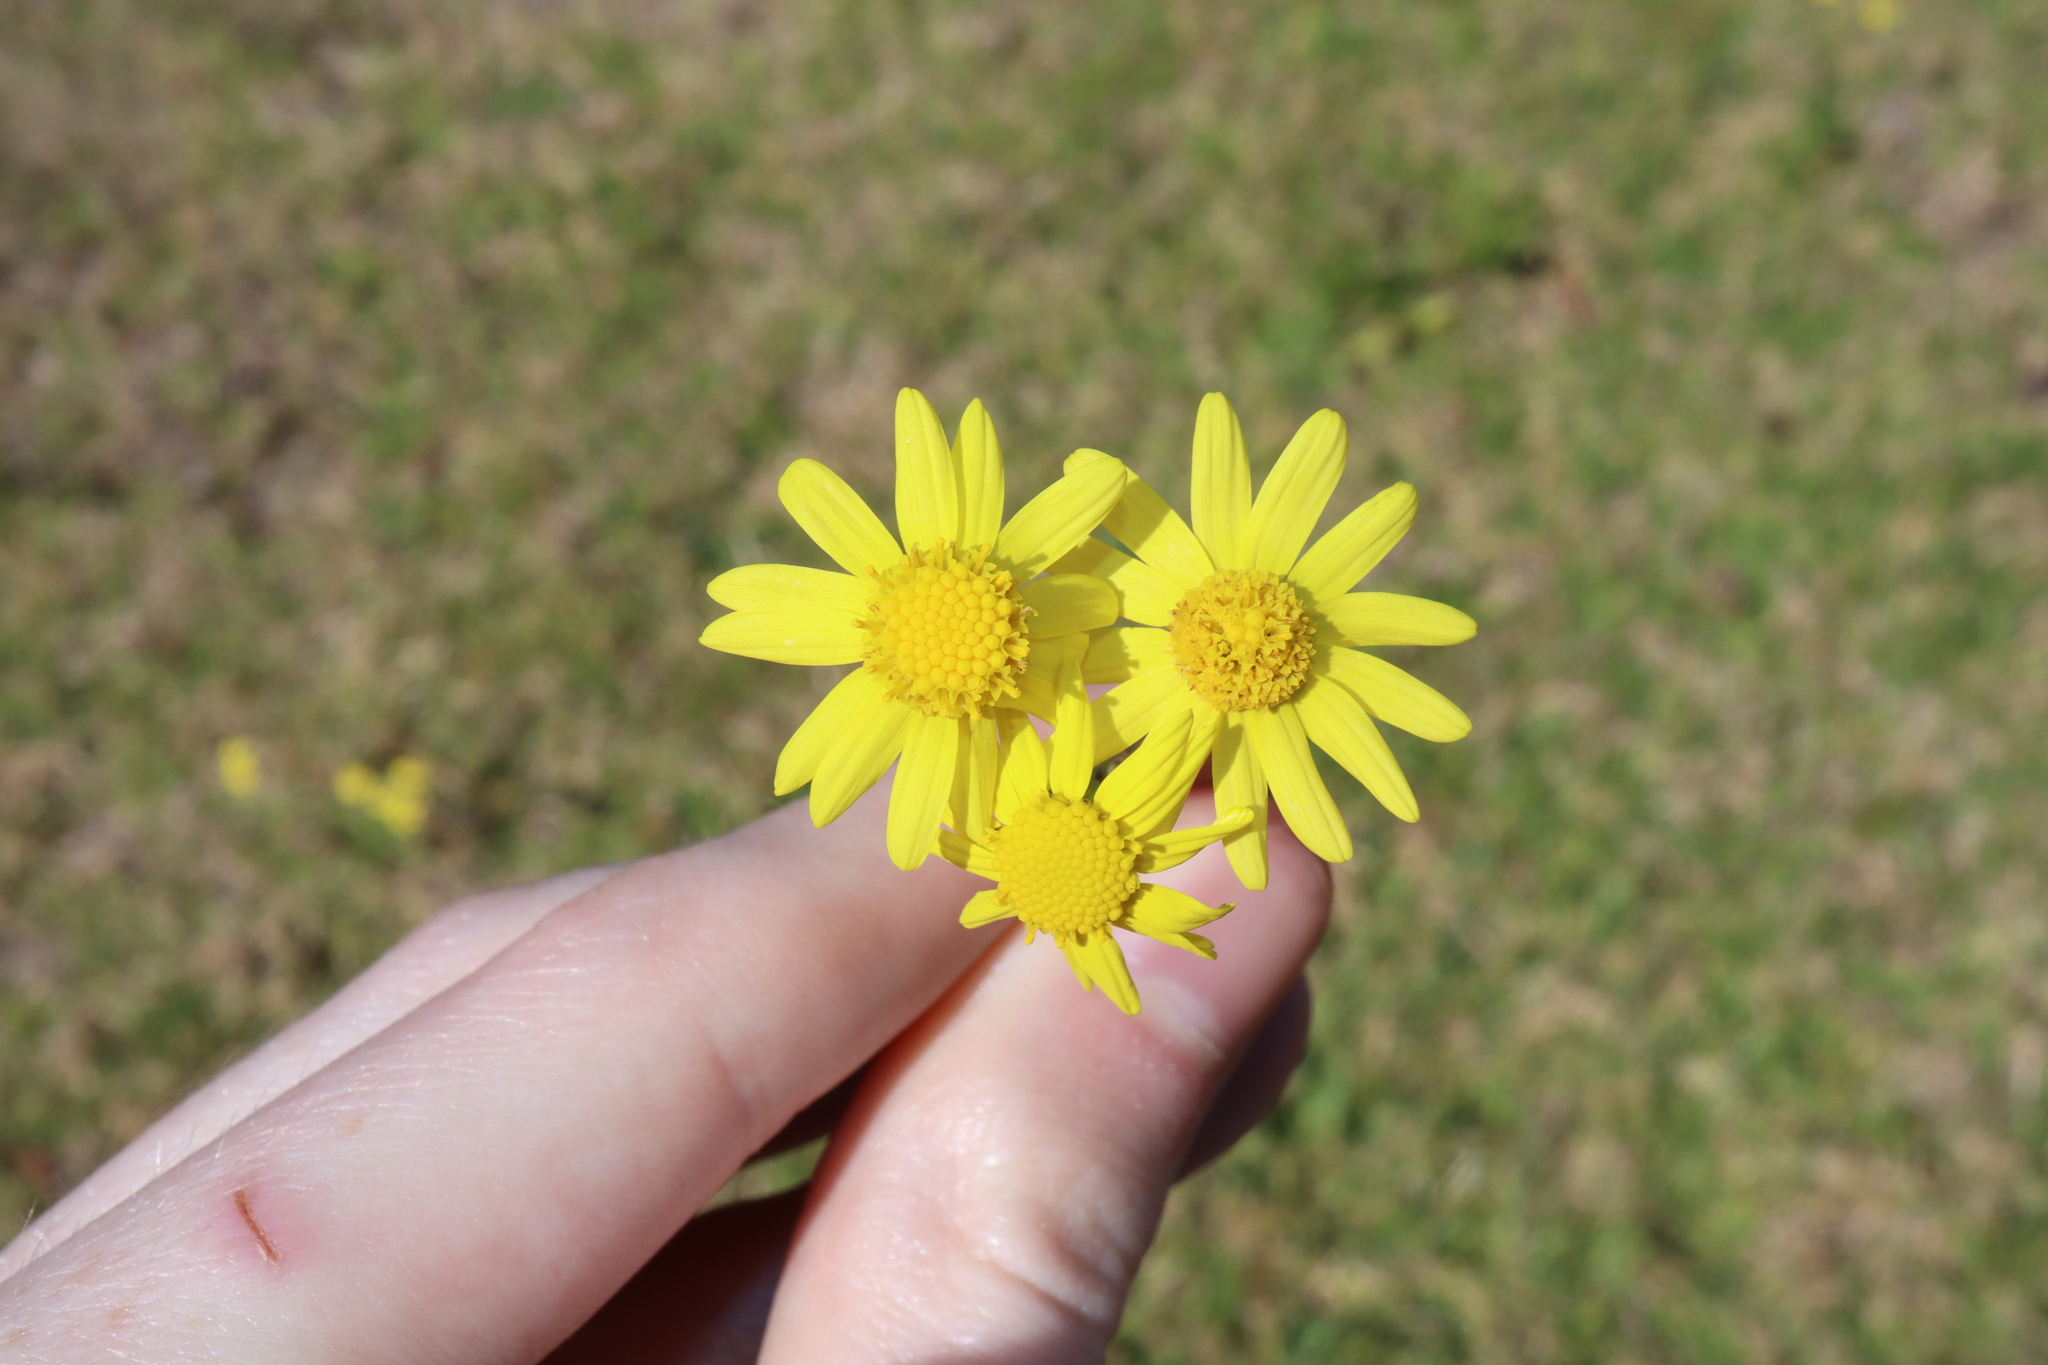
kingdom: Plantae
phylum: Tracheophyta
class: Magnoliopsida
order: Asterales
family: Asteraceae
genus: Senecio
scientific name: Senecio madagascariensis
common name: Madagascar ragwort
